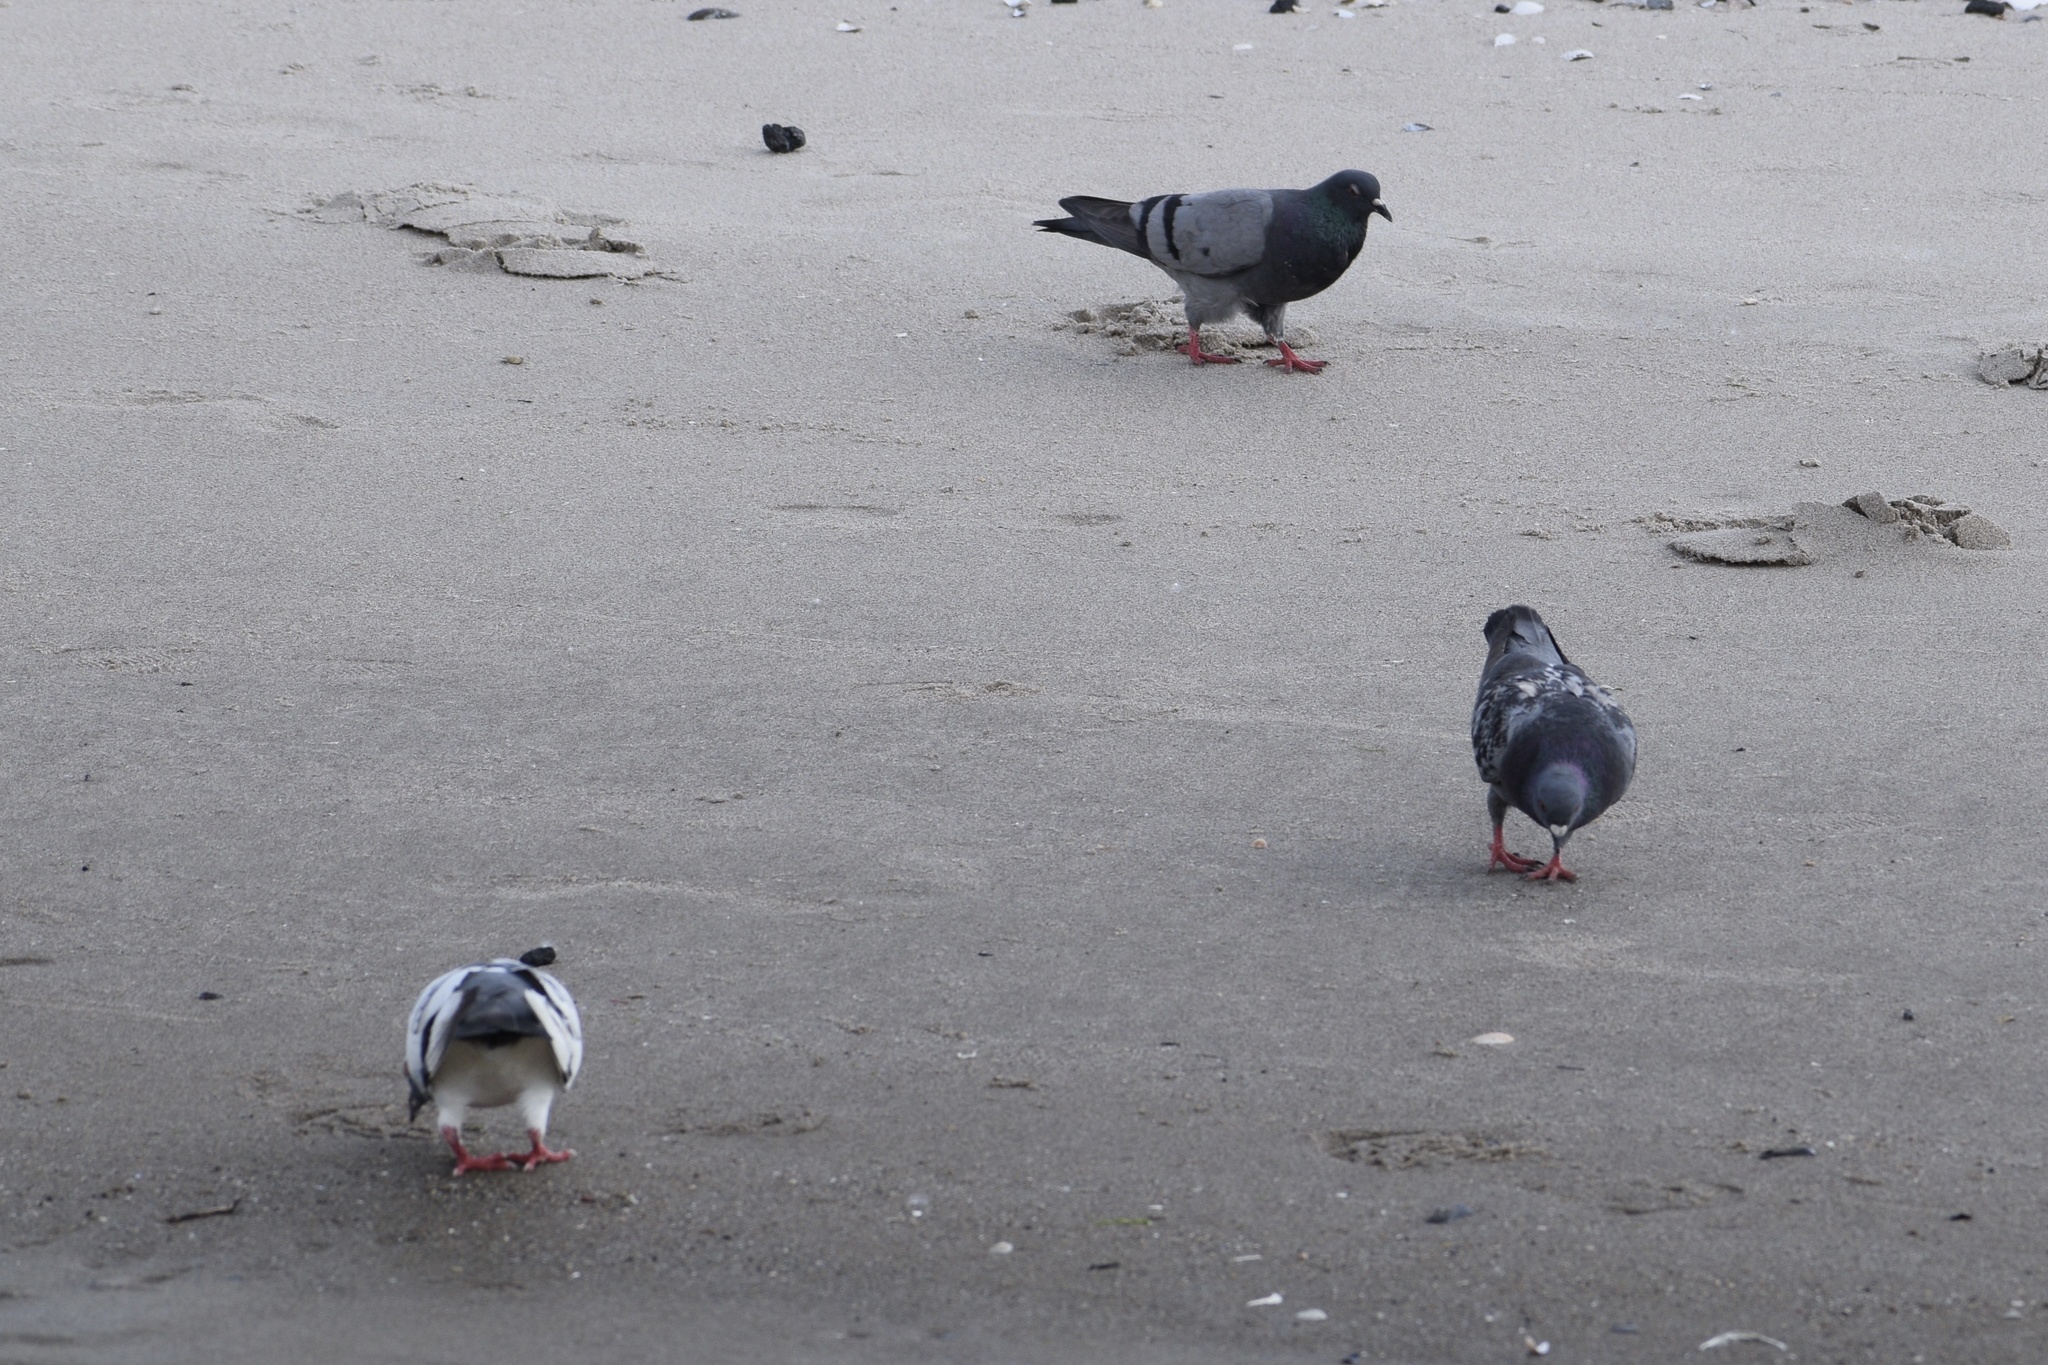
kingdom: Animalia
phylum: Chordata
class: Aves
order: Columbiformes
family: Columbidae
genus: Columba
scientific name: Columba livia
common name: Rock pigeon
